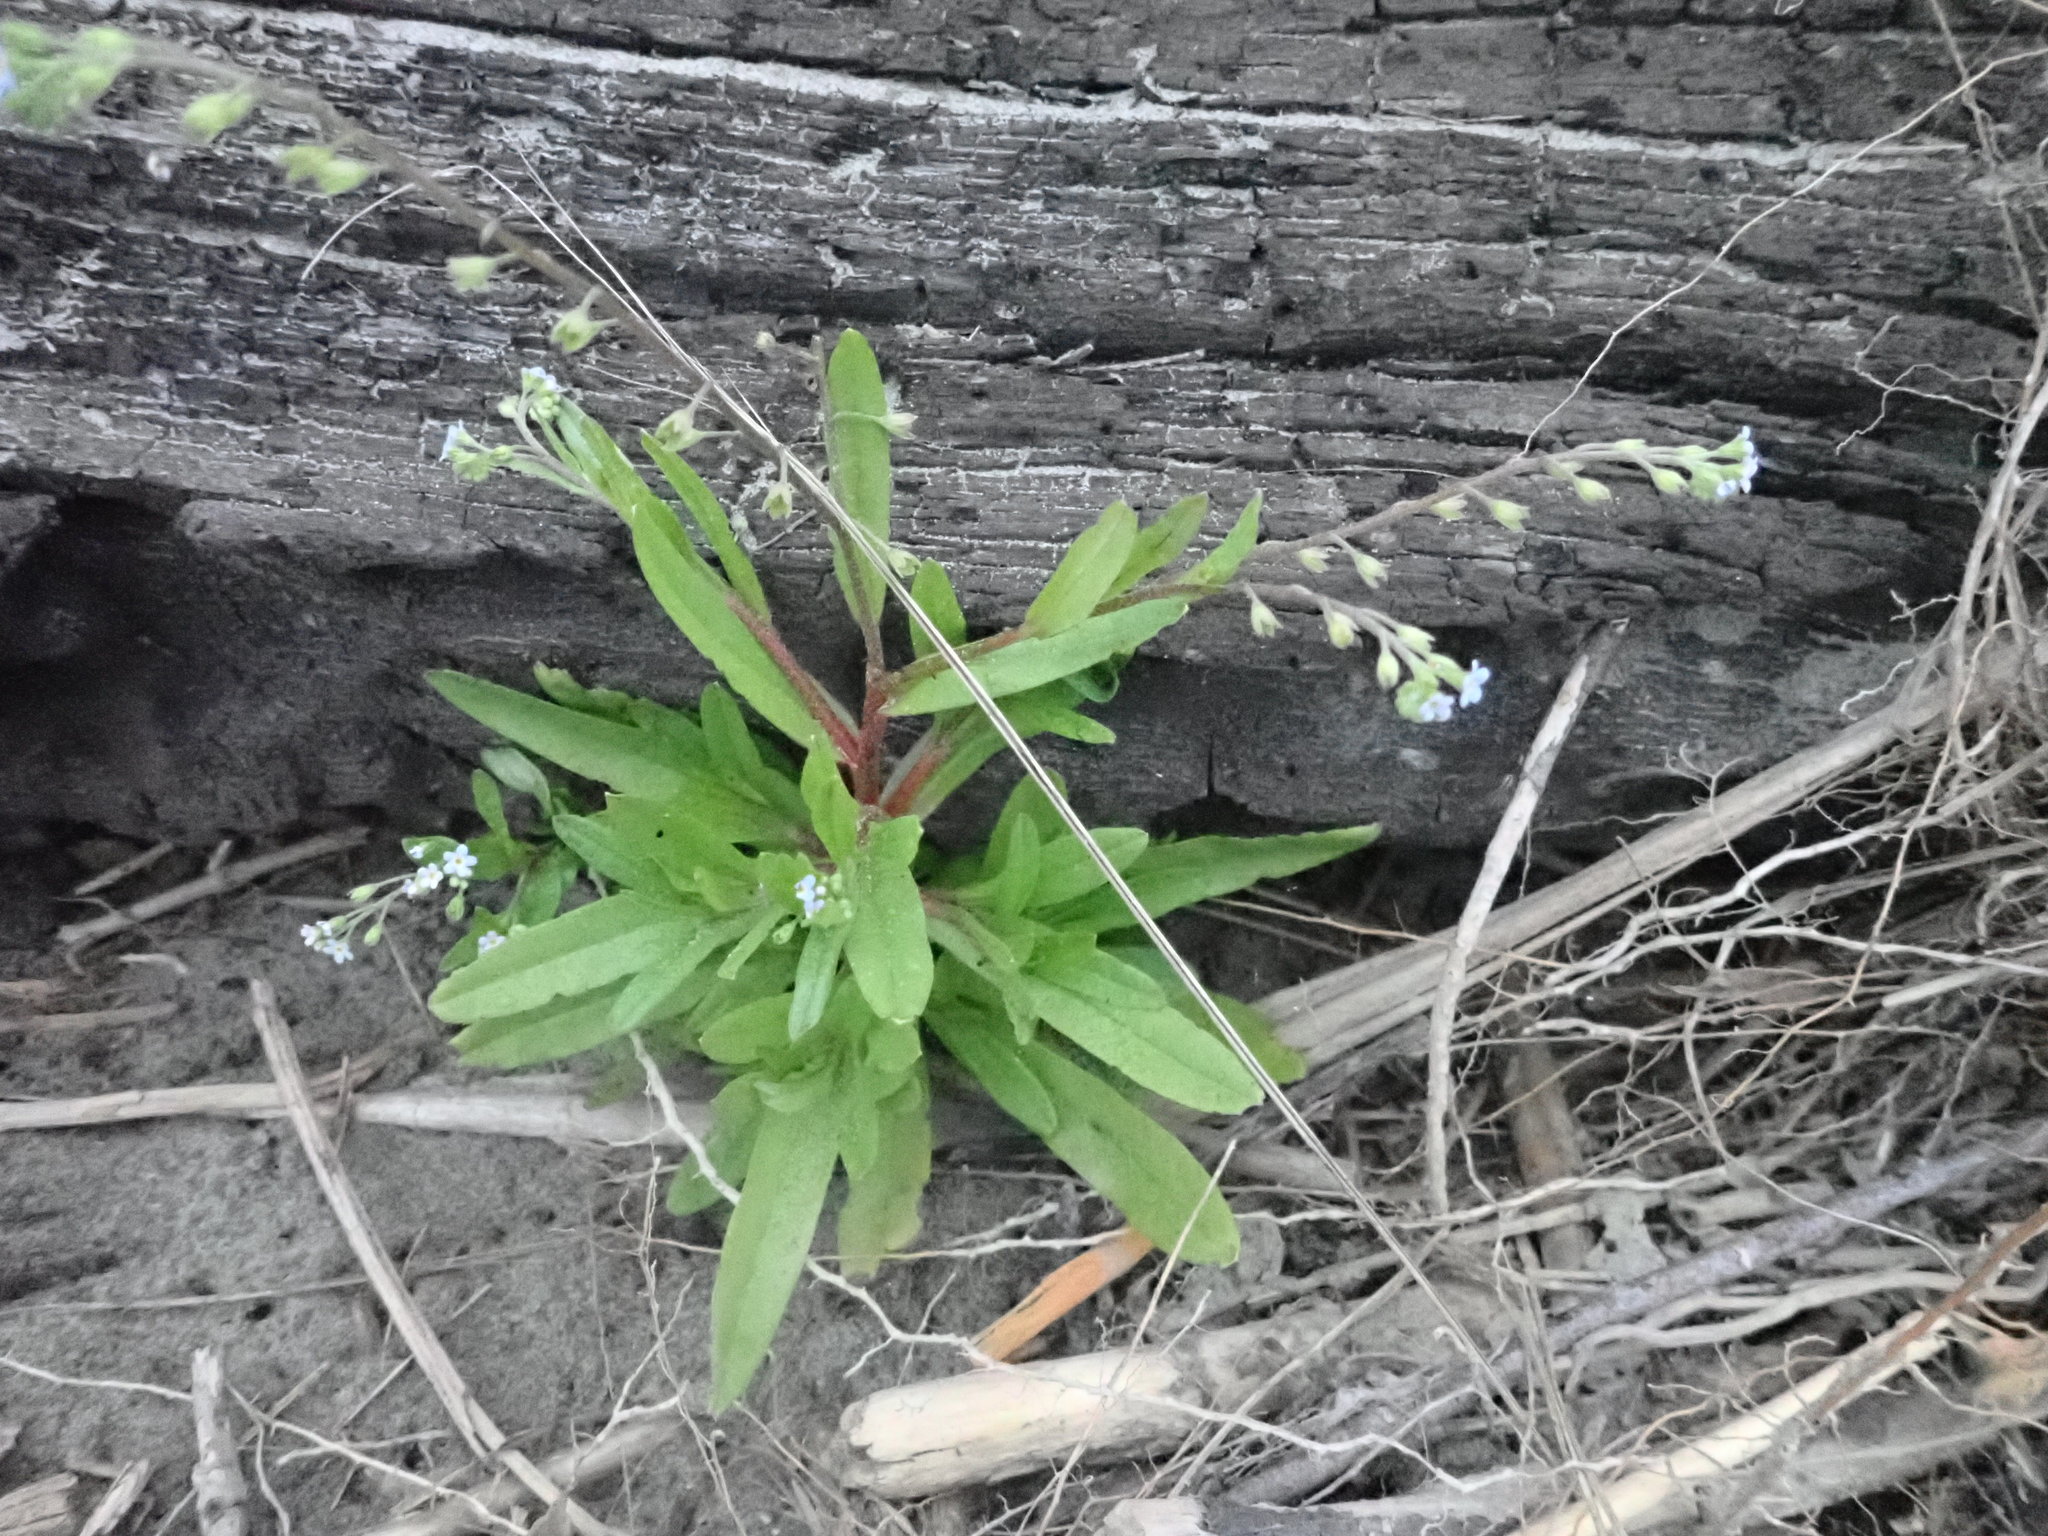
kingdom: Plantae
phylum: Tracheophyta
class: Magnoliopsida
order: Boraginales
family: Boraginaceae
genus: Myosotis
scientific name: Myosotis laxa
